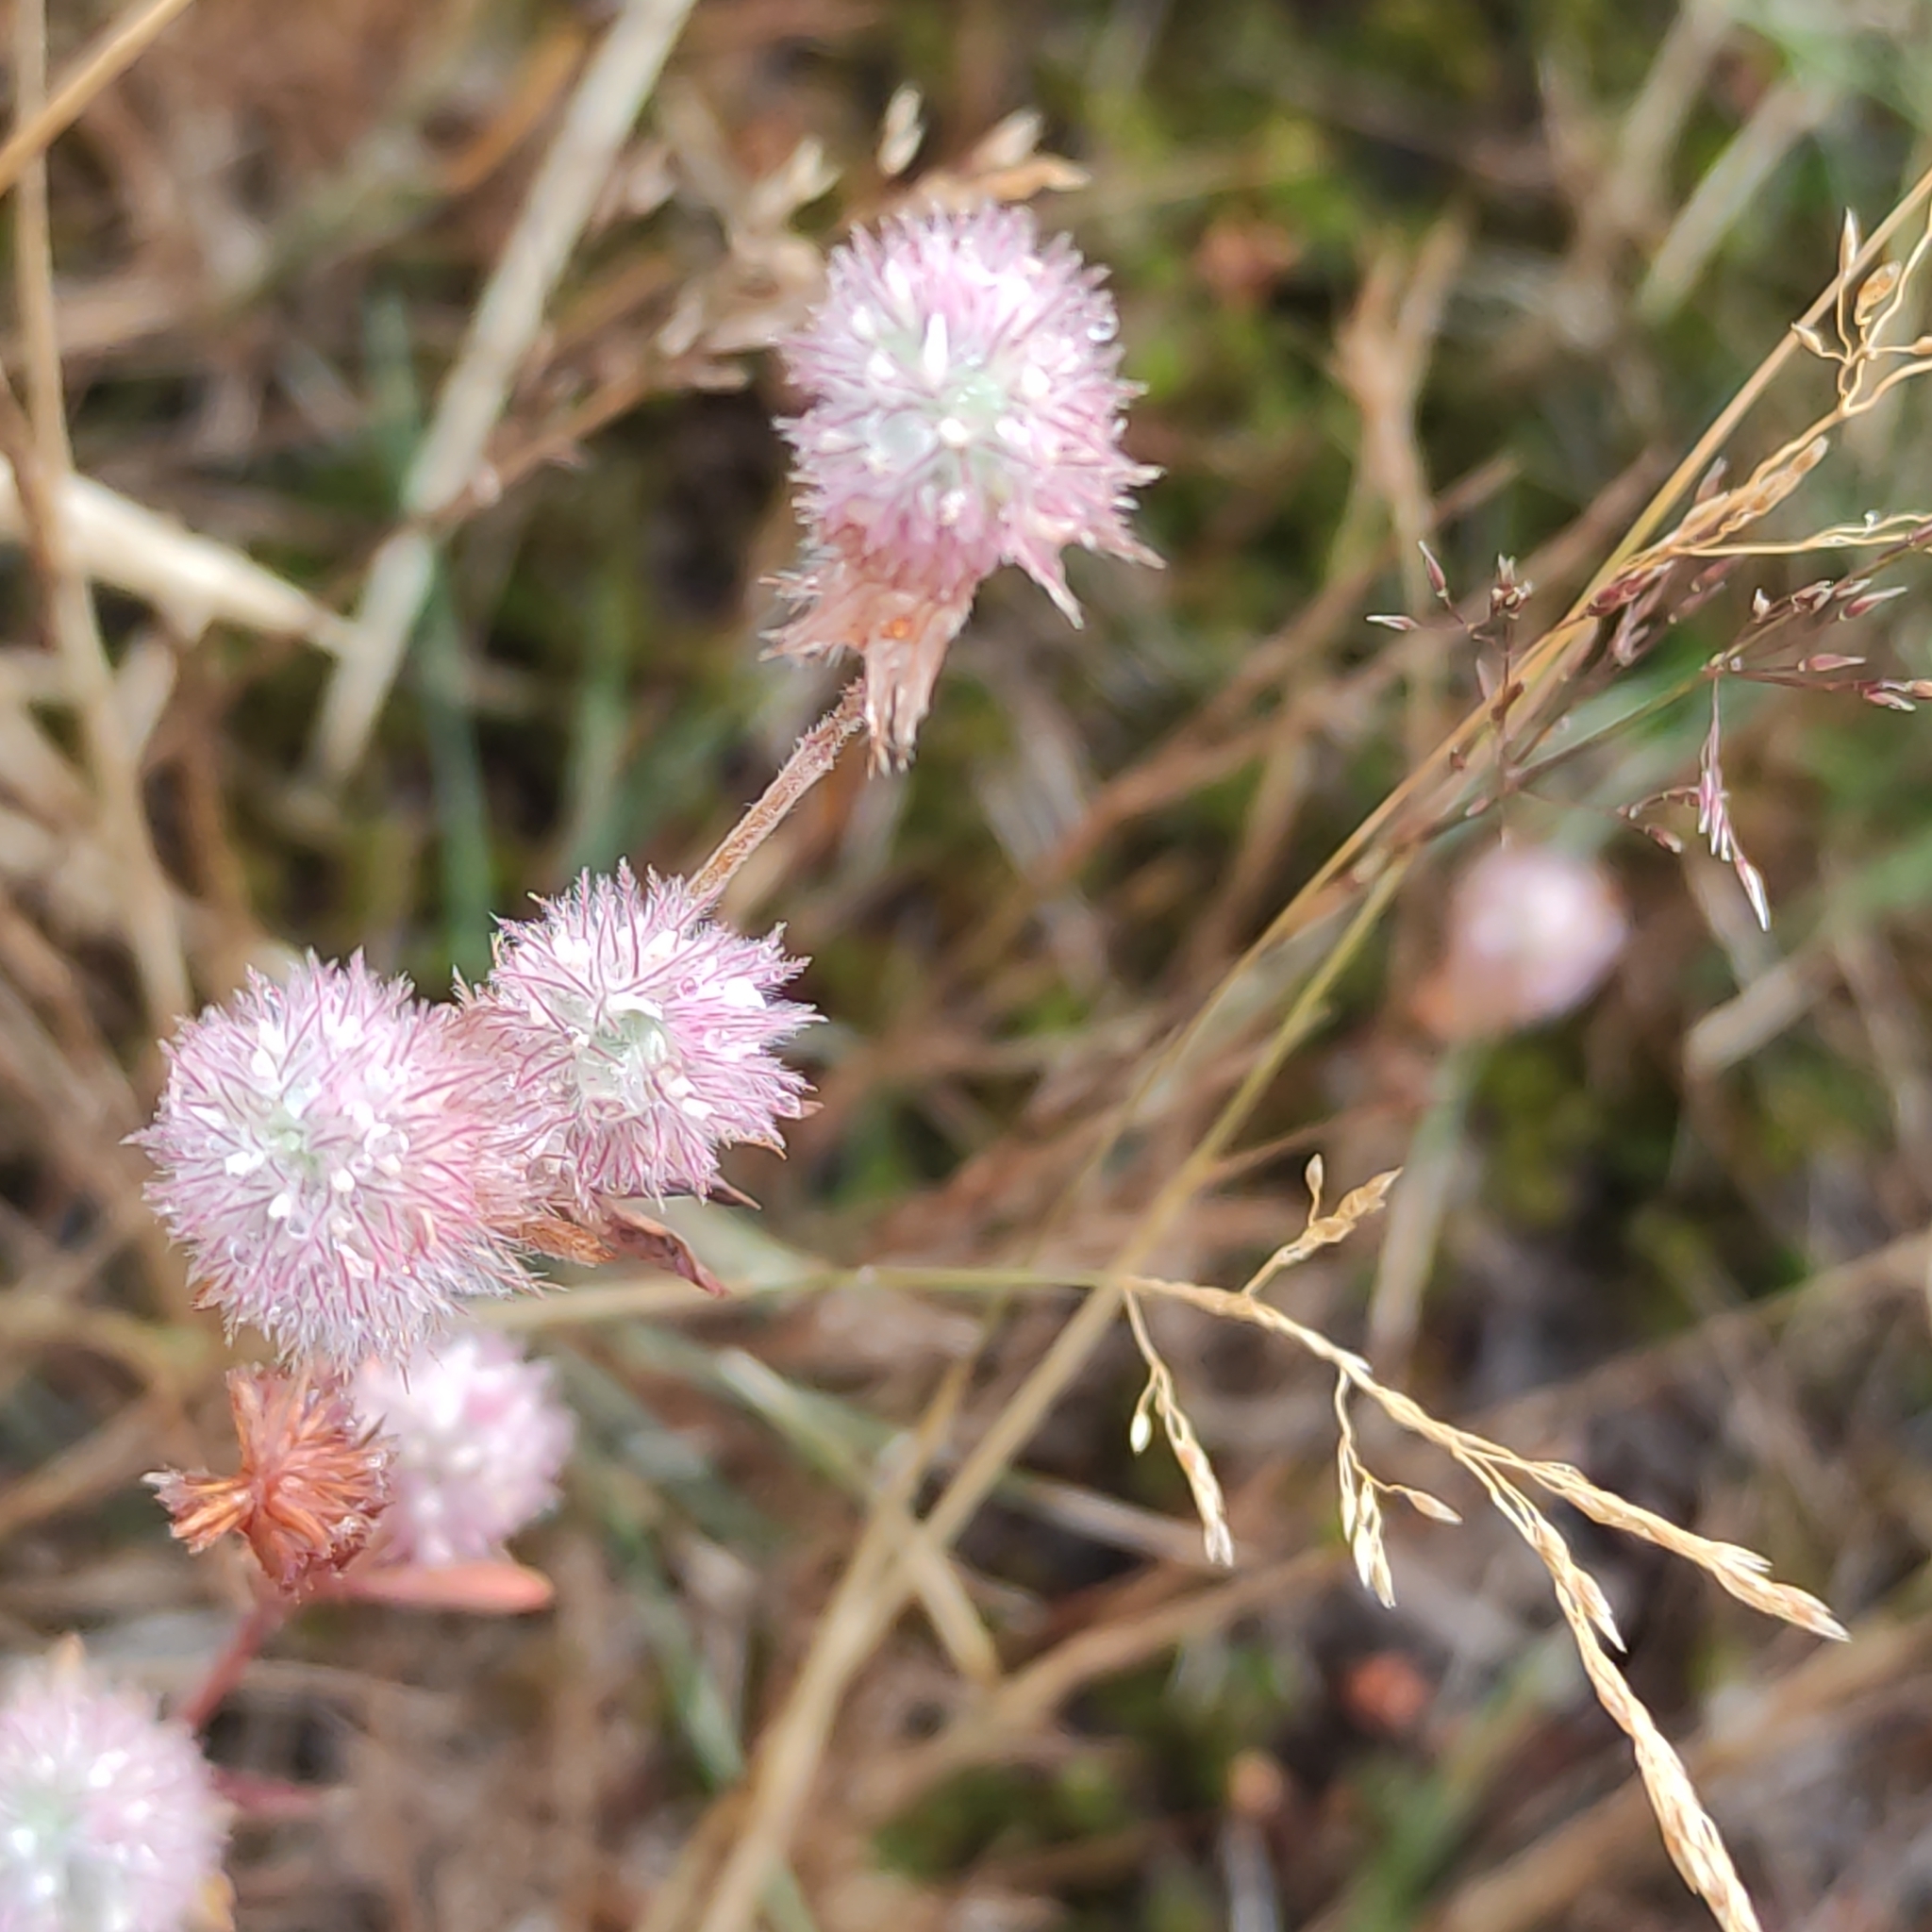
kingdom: Plantae
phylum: Tracheophyta
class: Magnoliopsida
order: Fabales
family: Fabaceae
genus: Trifolium
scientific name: Trifolium arvense
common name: Hare's-foot clover
